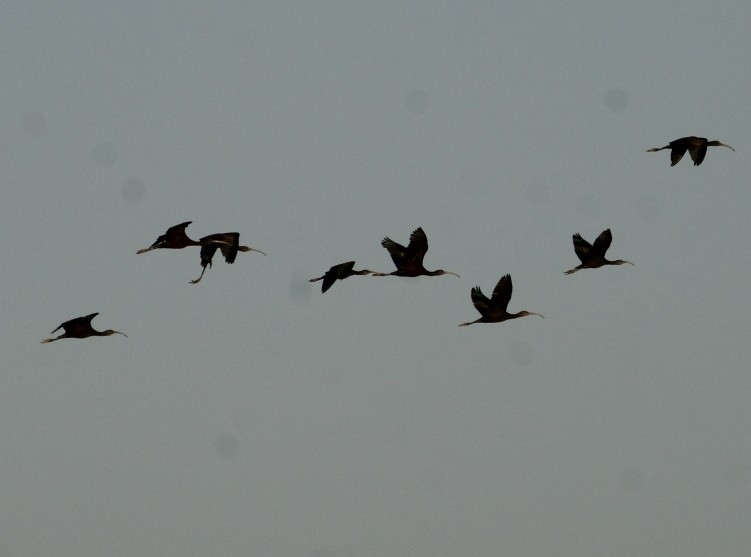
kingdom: Animalia
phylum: Chordata
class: Aves
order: Pelecaniformes
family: Threskiornithidae
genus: Plegadis
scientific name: Plegadis chihi
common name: White-faced ibis
